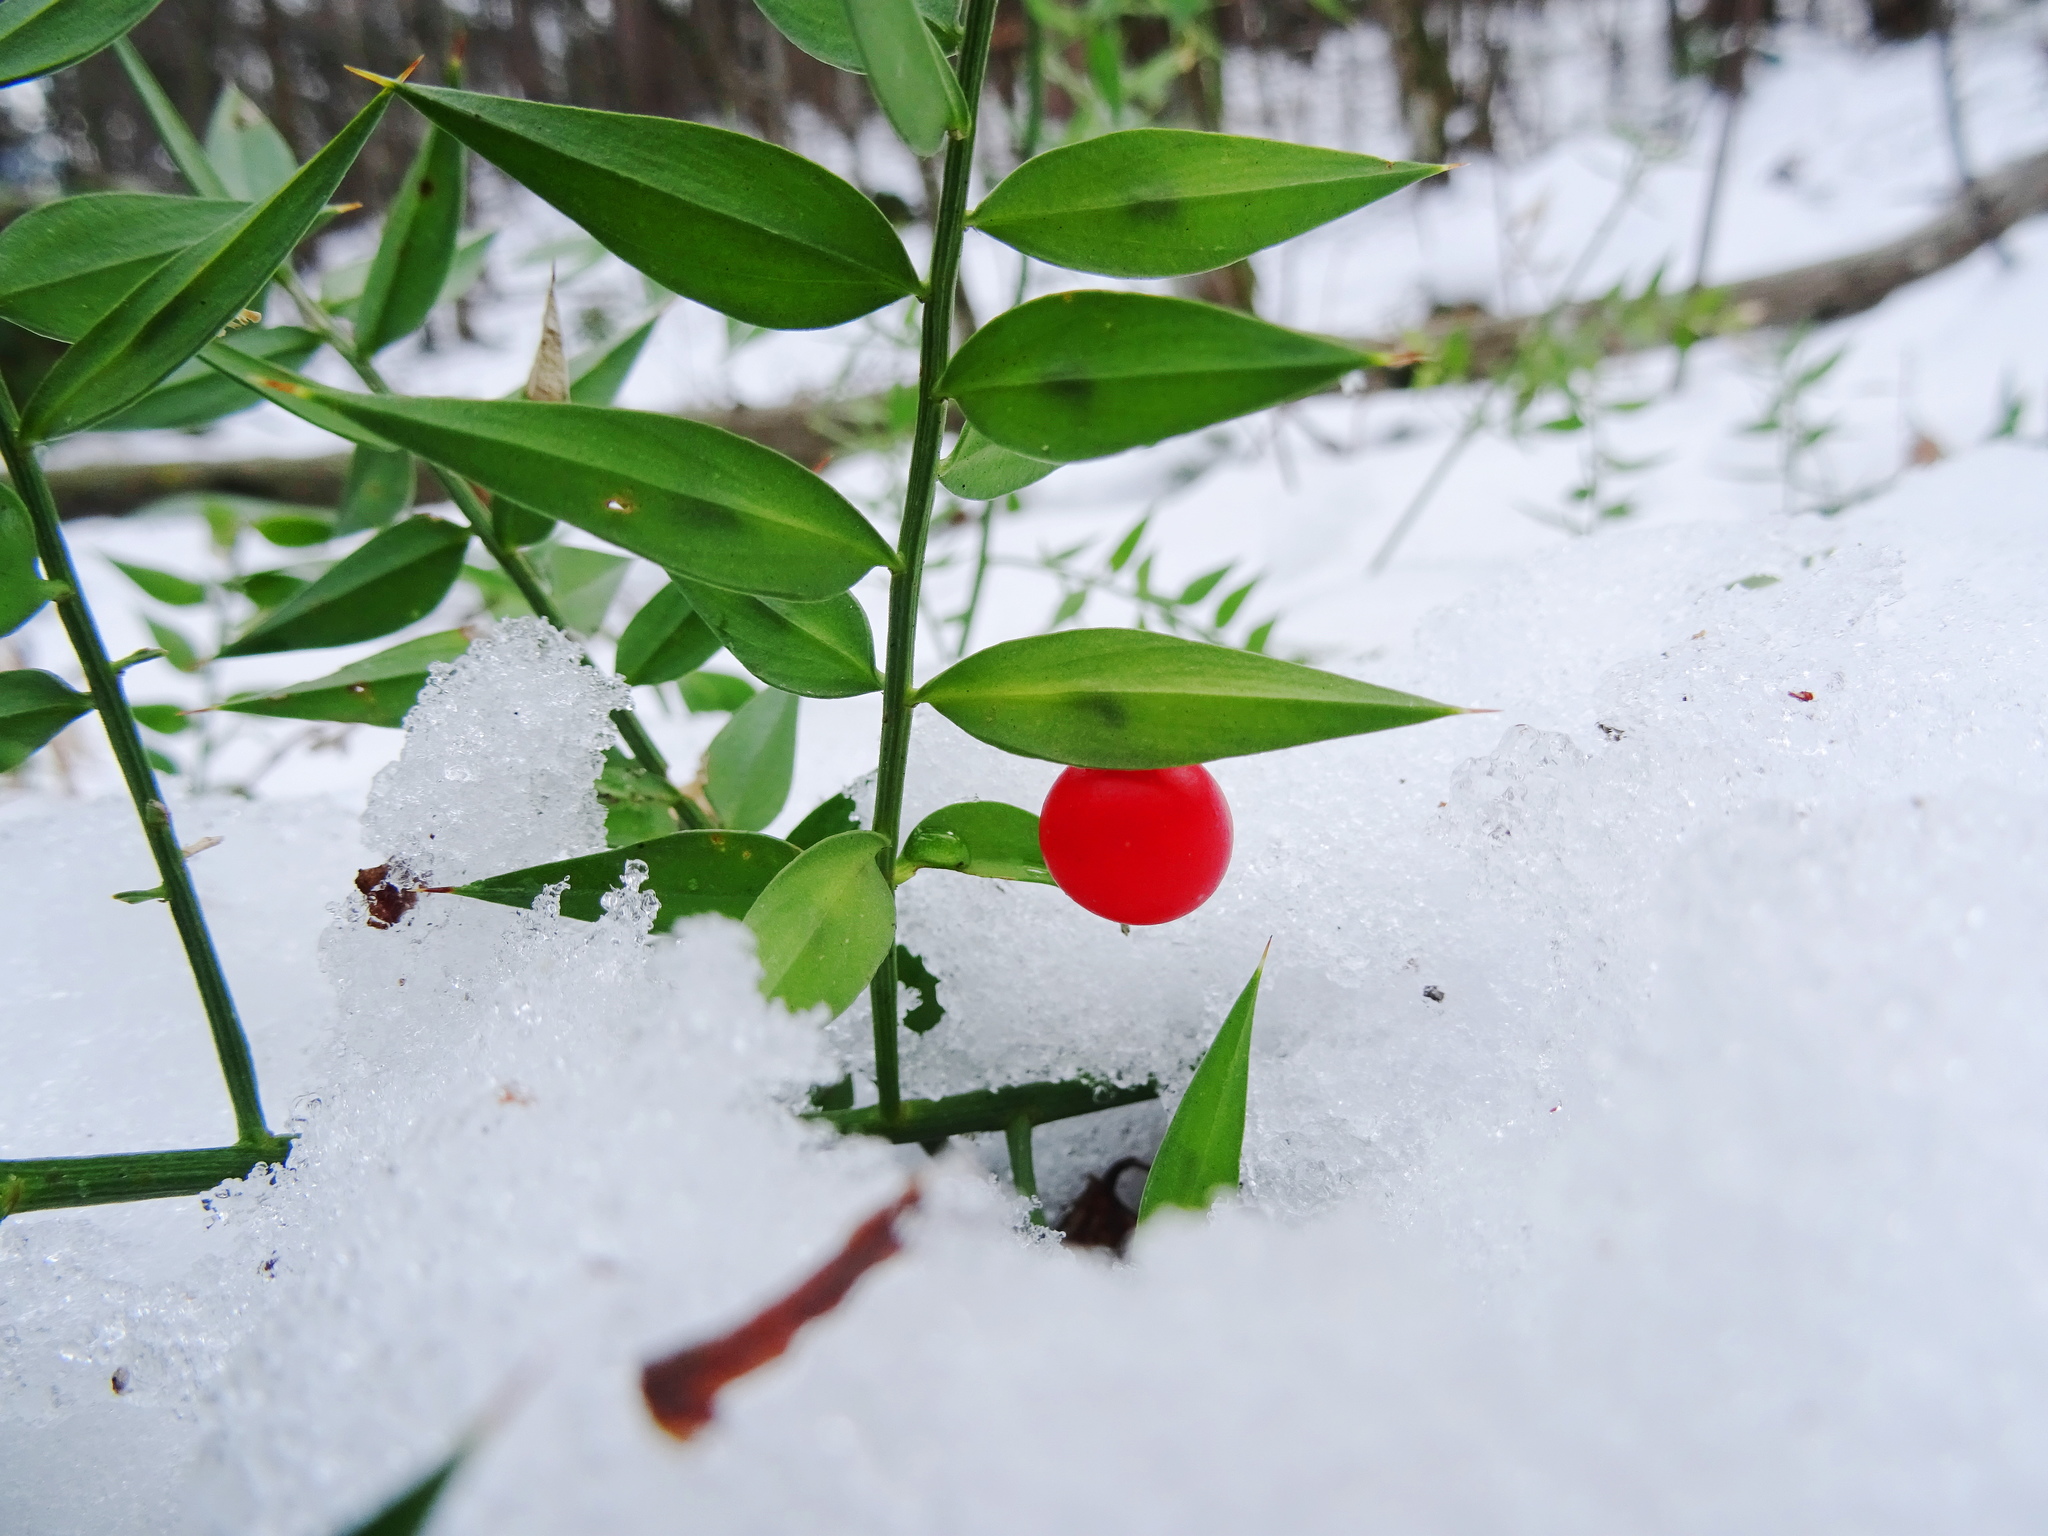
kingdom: Plantae
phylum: Tracheophyta
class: Liliopsida
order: Asparagales
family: Asparagaceae
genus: Ruscus
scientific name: Ruscus aculeatus
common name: Butcher's-broom
